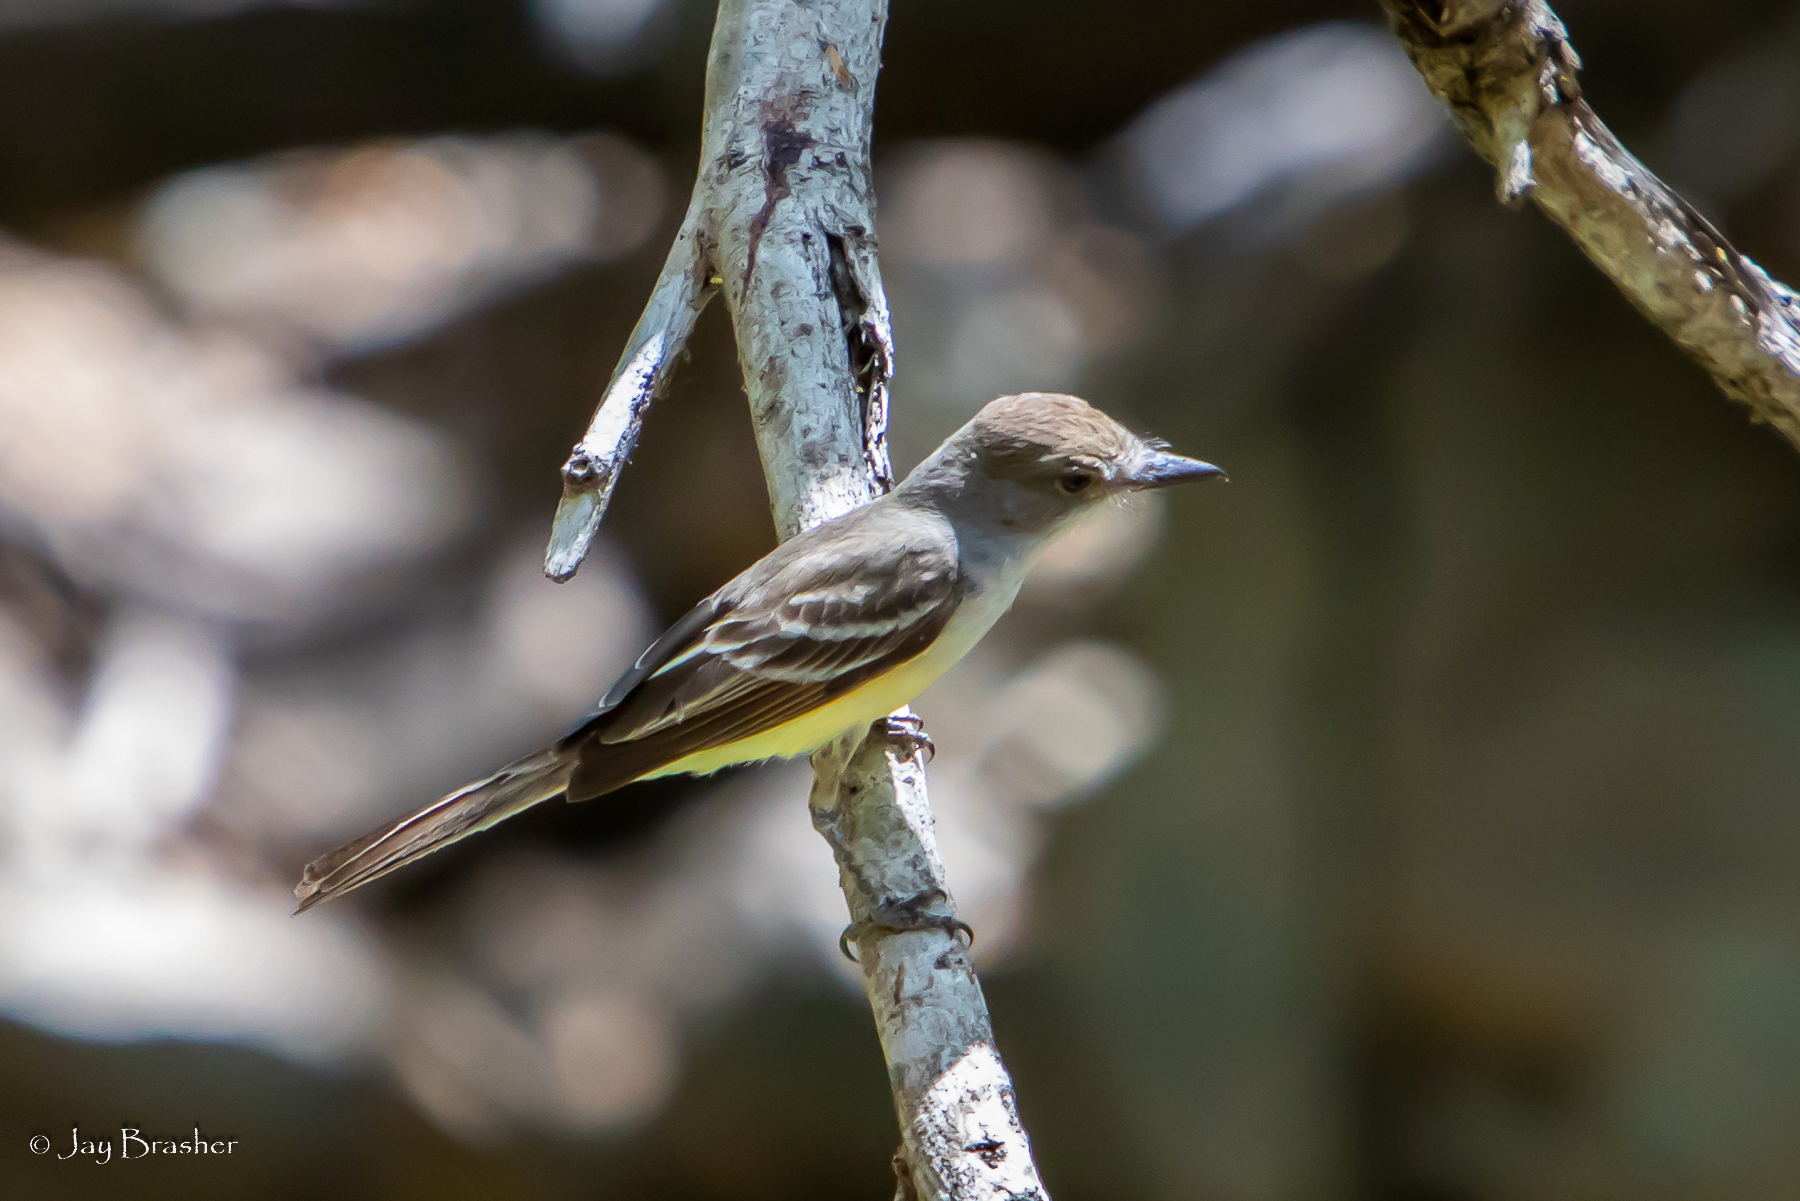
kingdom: Animalia
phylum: Chordata
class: Aves
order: Passeriformes
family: Tyrannidae
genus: Myiarchus
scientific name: Myiarchus tyrannulus
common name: Brown-crested flycatcher
